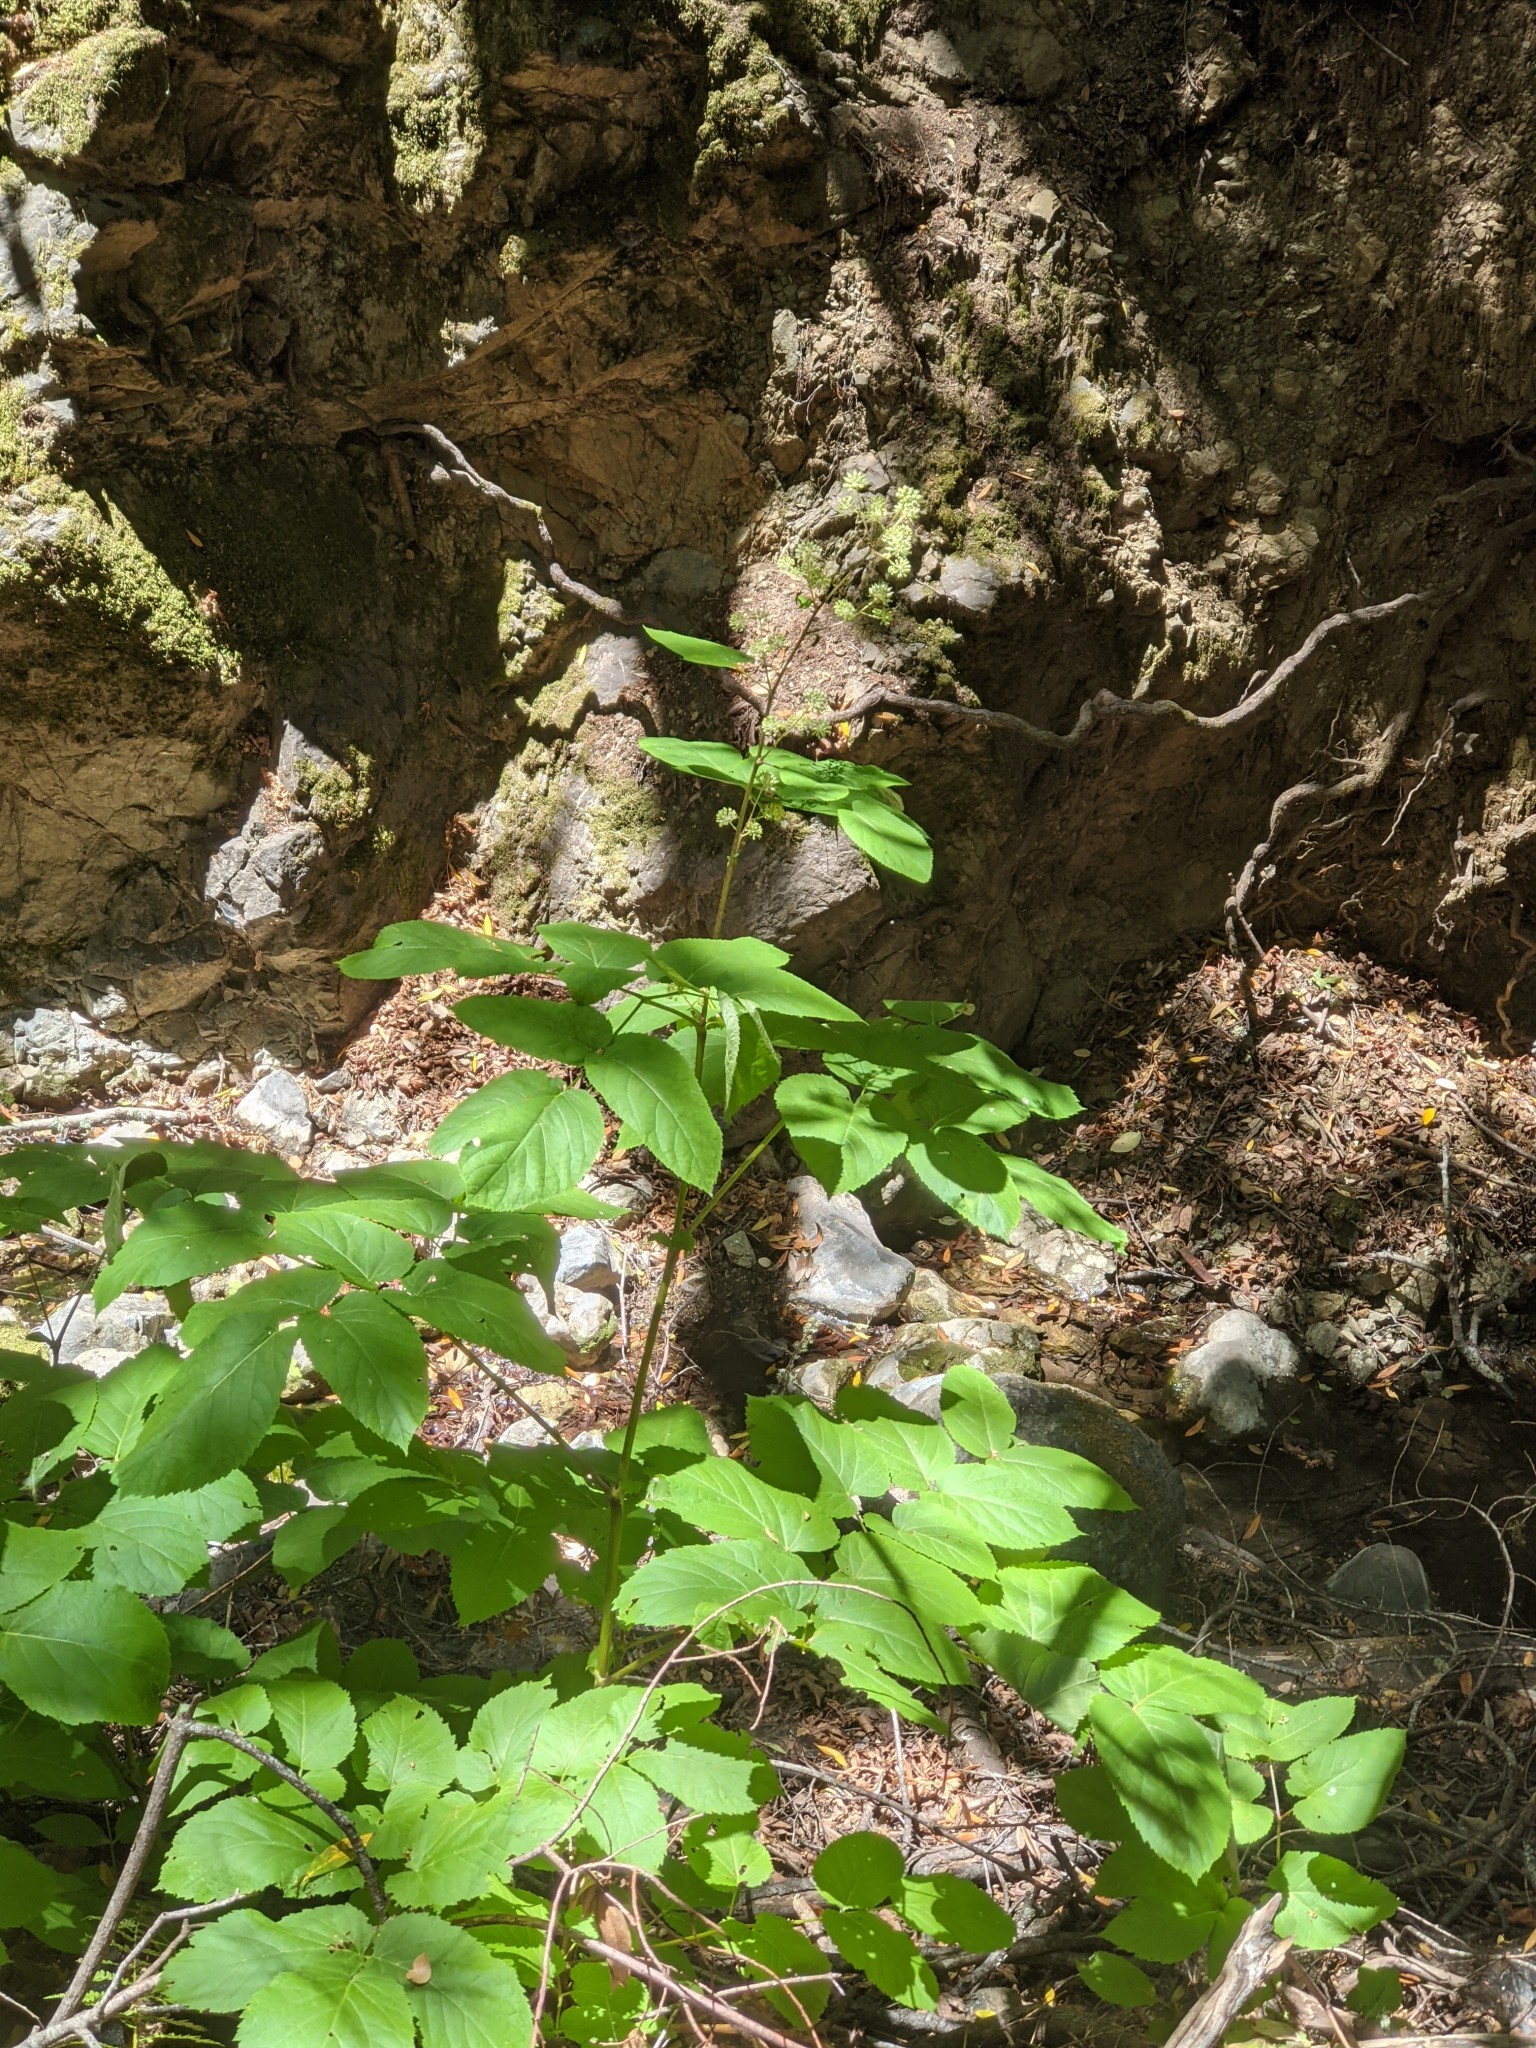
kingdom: Plantae
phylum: Tracheophyta
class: Magnoliopsida
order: Apiales
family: Araliaceae
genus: Aralia
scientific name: Aralia californica
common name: California-ginseng
